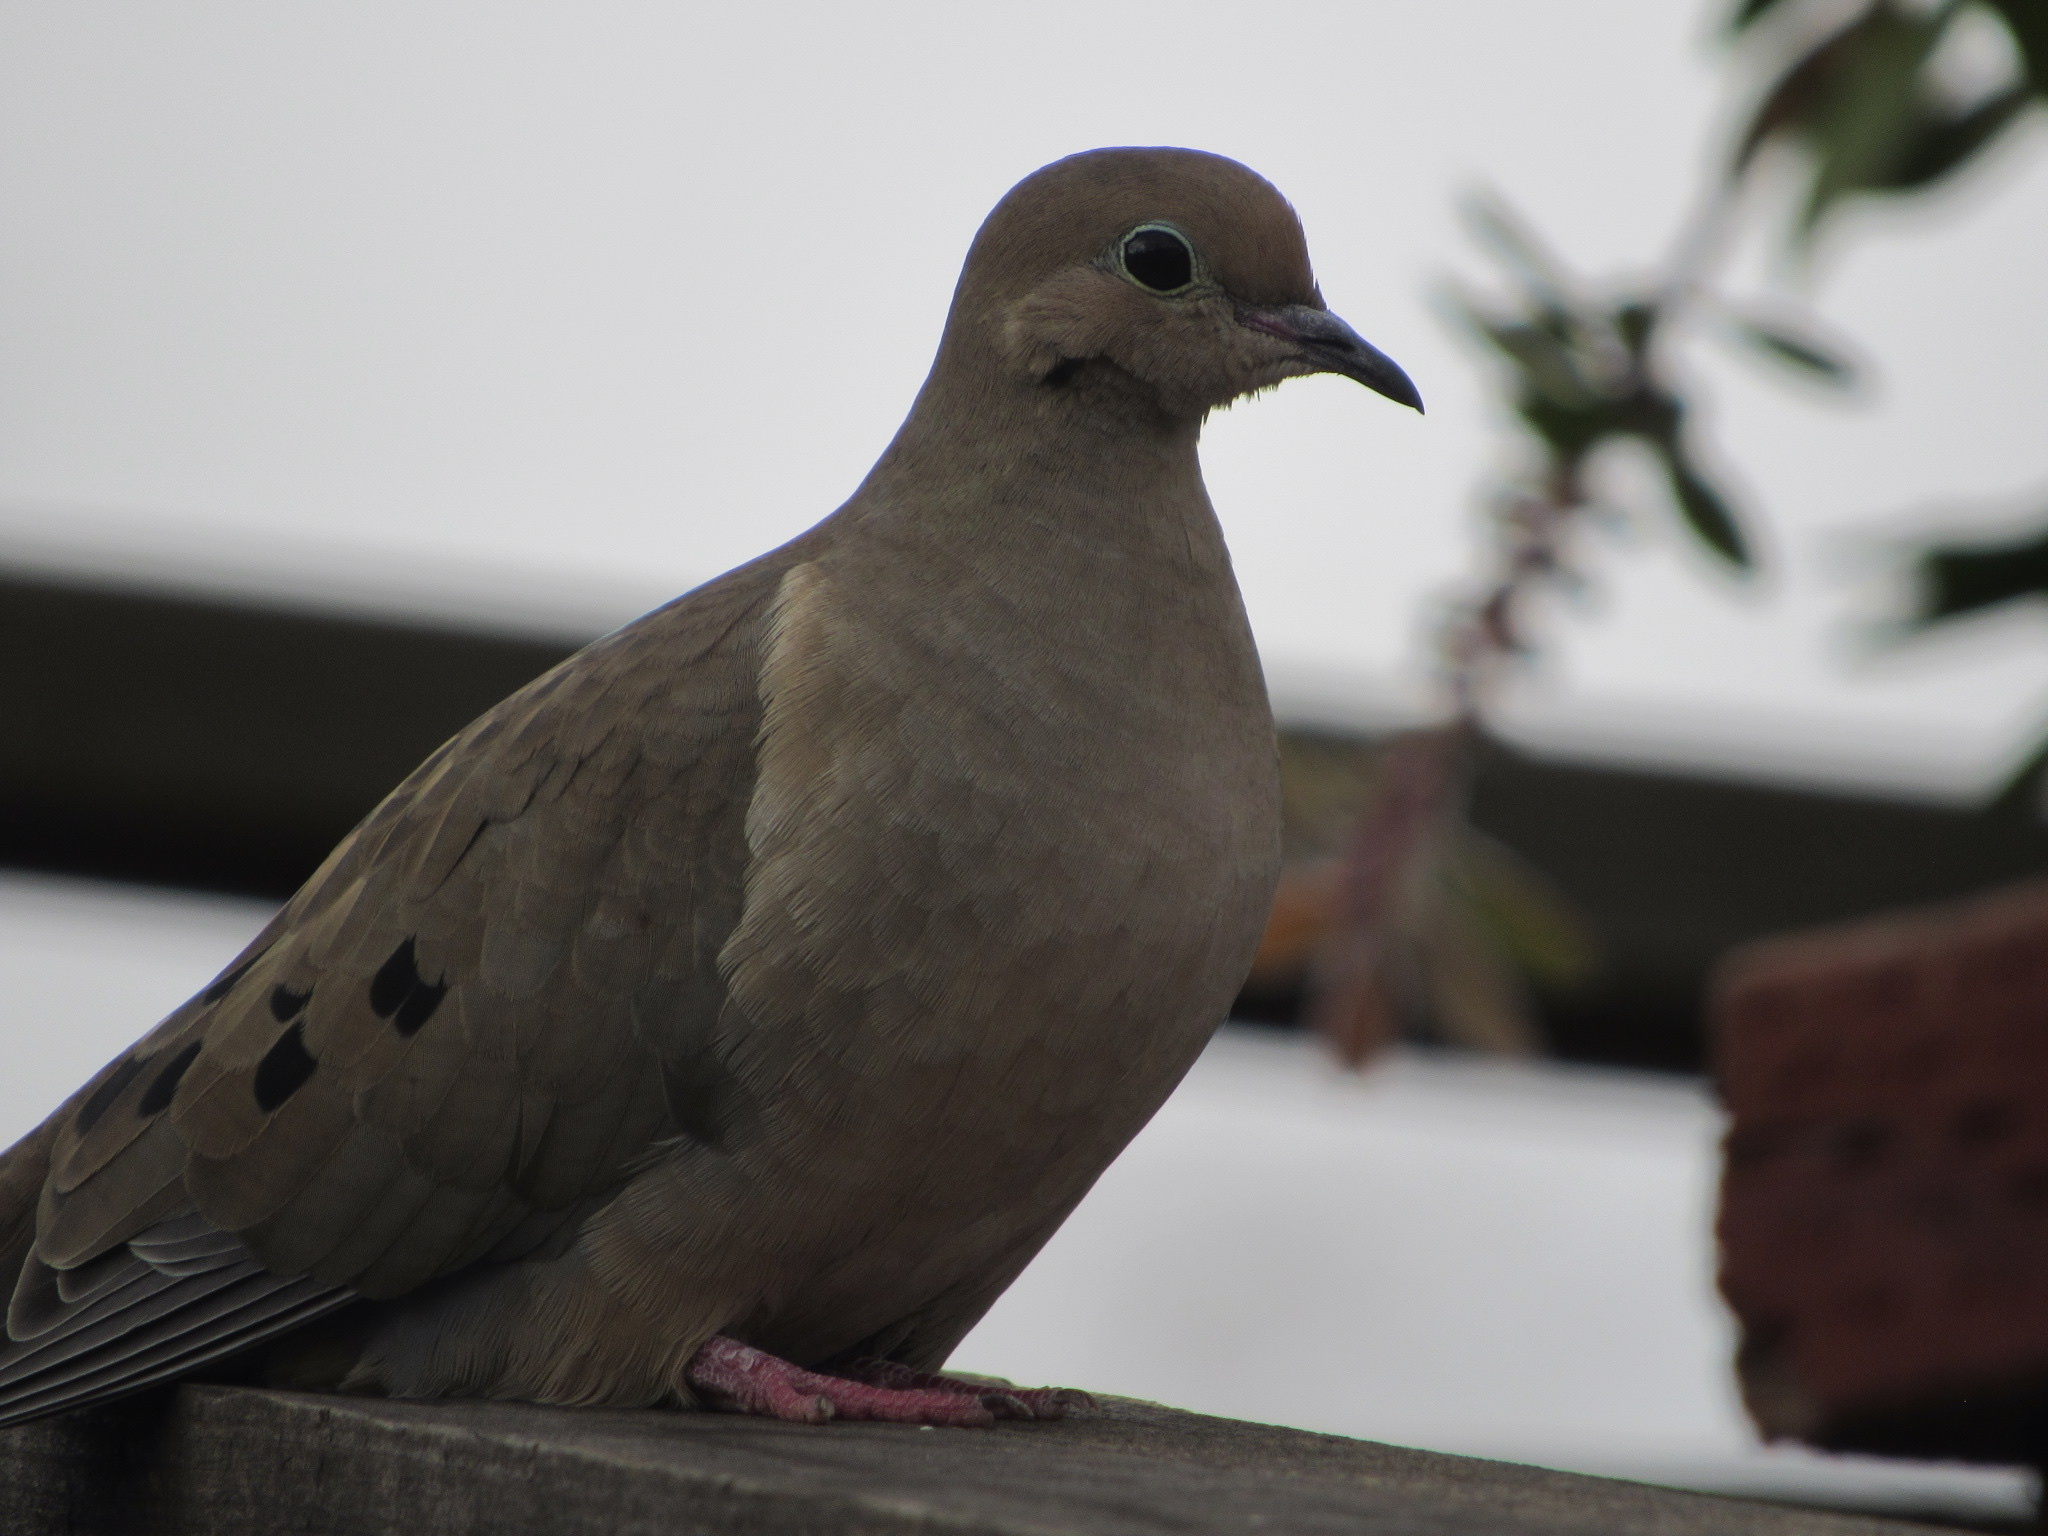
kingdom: Animalia
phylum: Chordata
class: Aves
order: Columbiformes
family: Columbidae
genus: Zenaida
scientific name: Zenaida macroura
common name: Mourning dove
